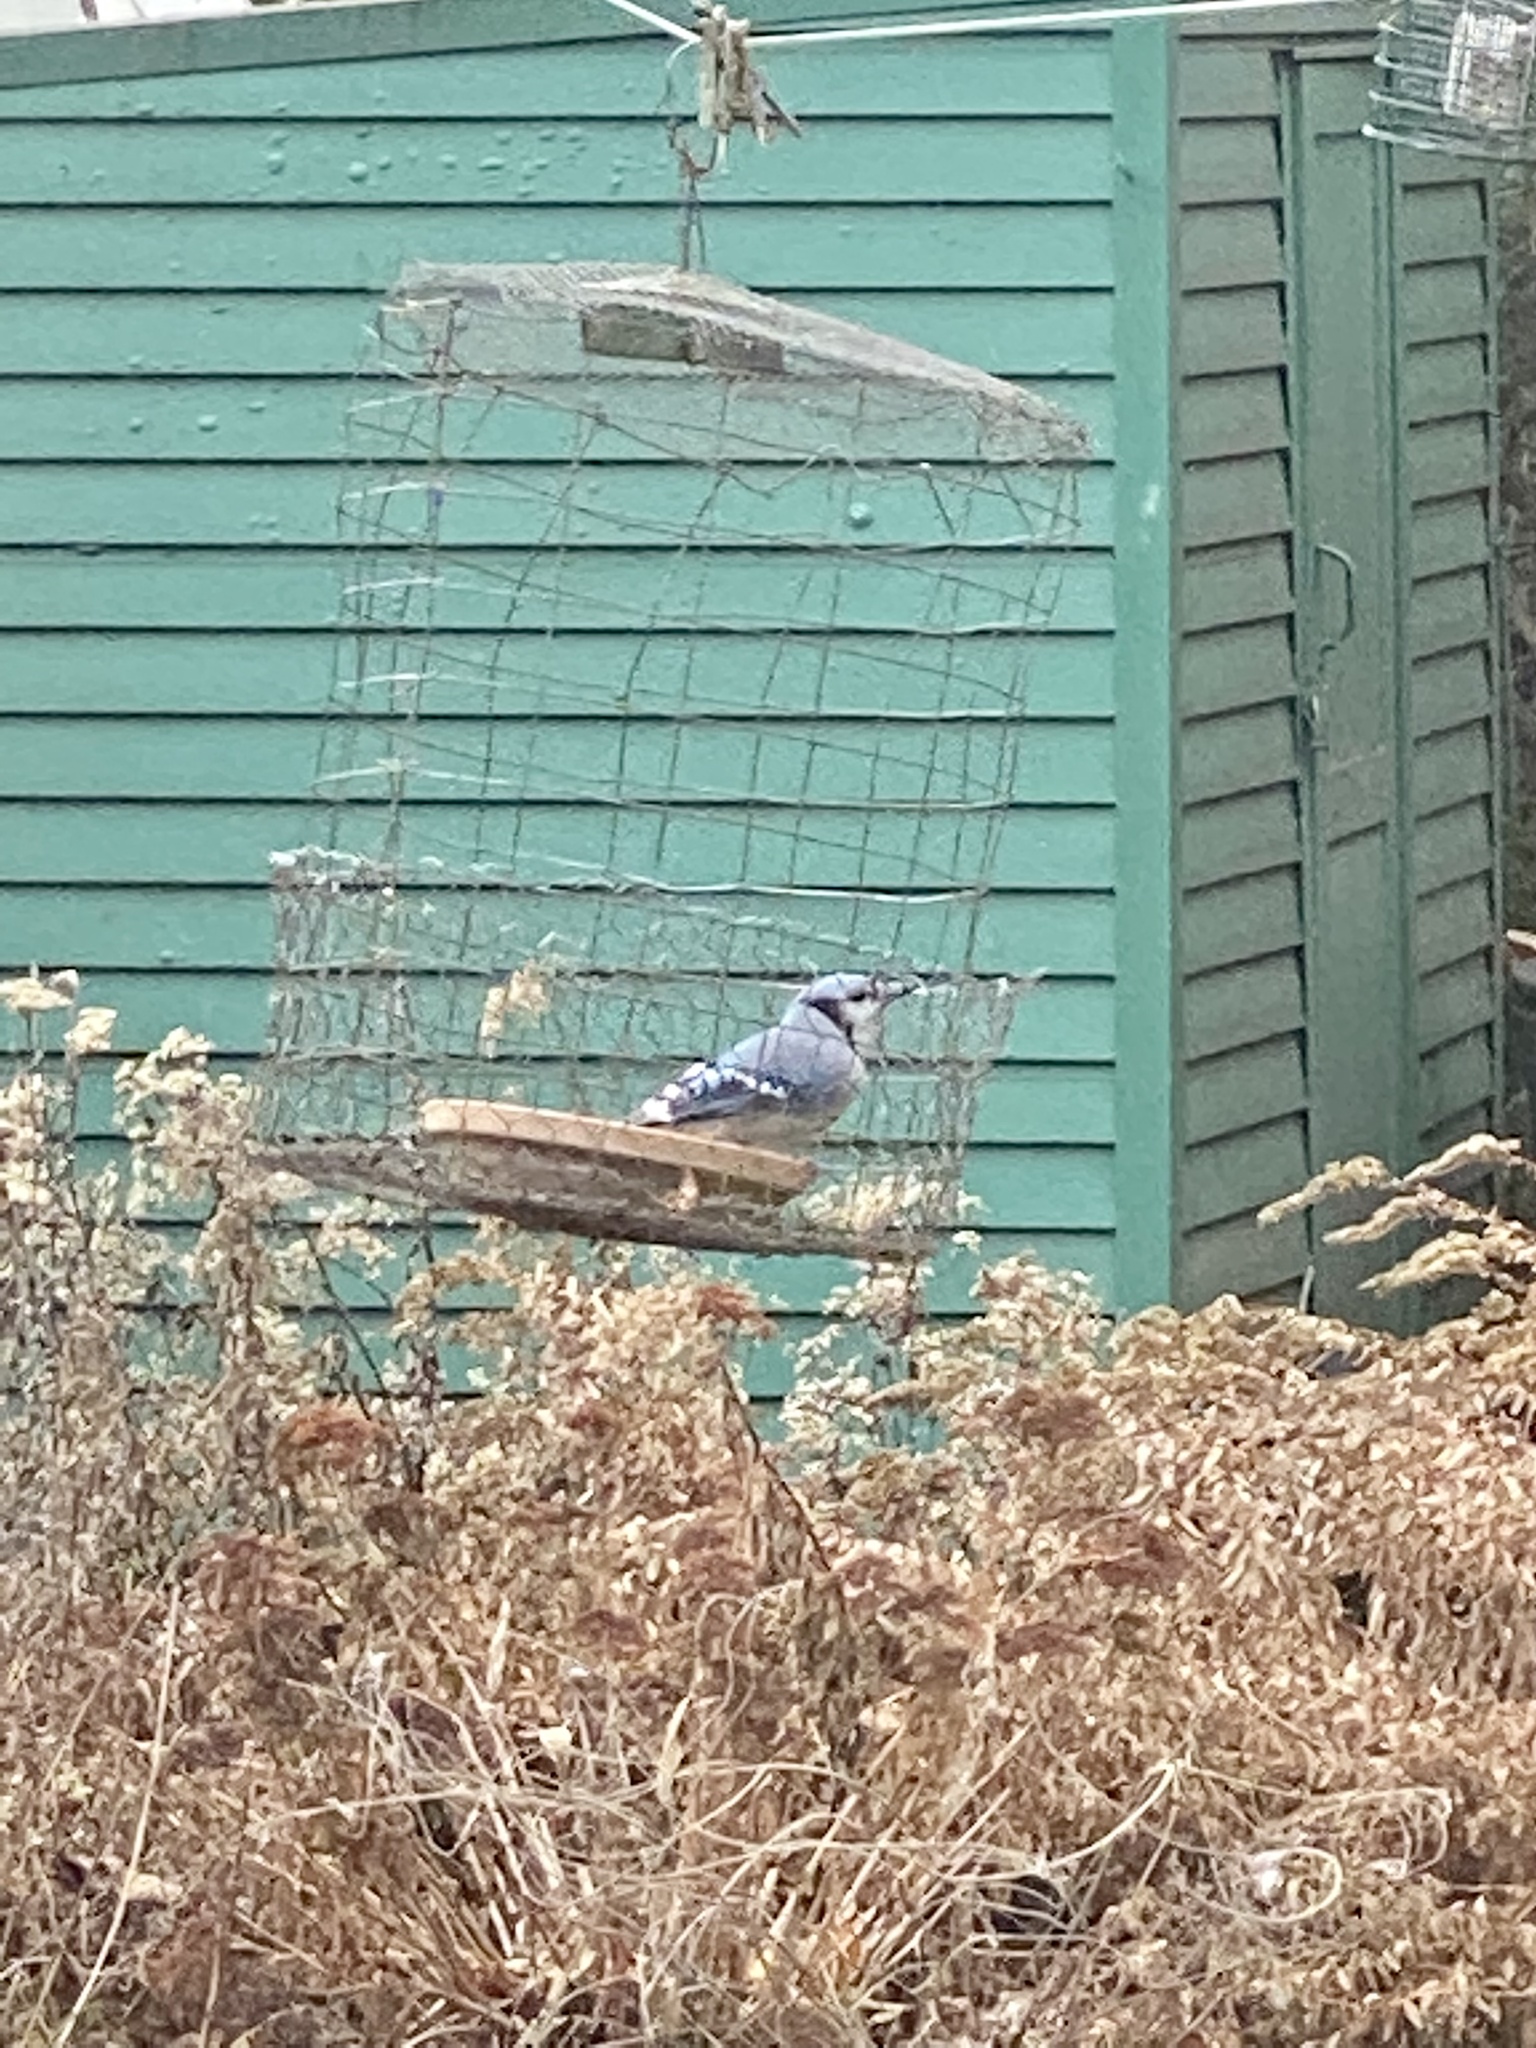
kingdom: Animalia
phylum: Chordata
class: Aves
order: Passeriformes
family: Corvidae
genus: Cyanocitta
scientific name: Cyanocitta cristata
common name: Blue jay
